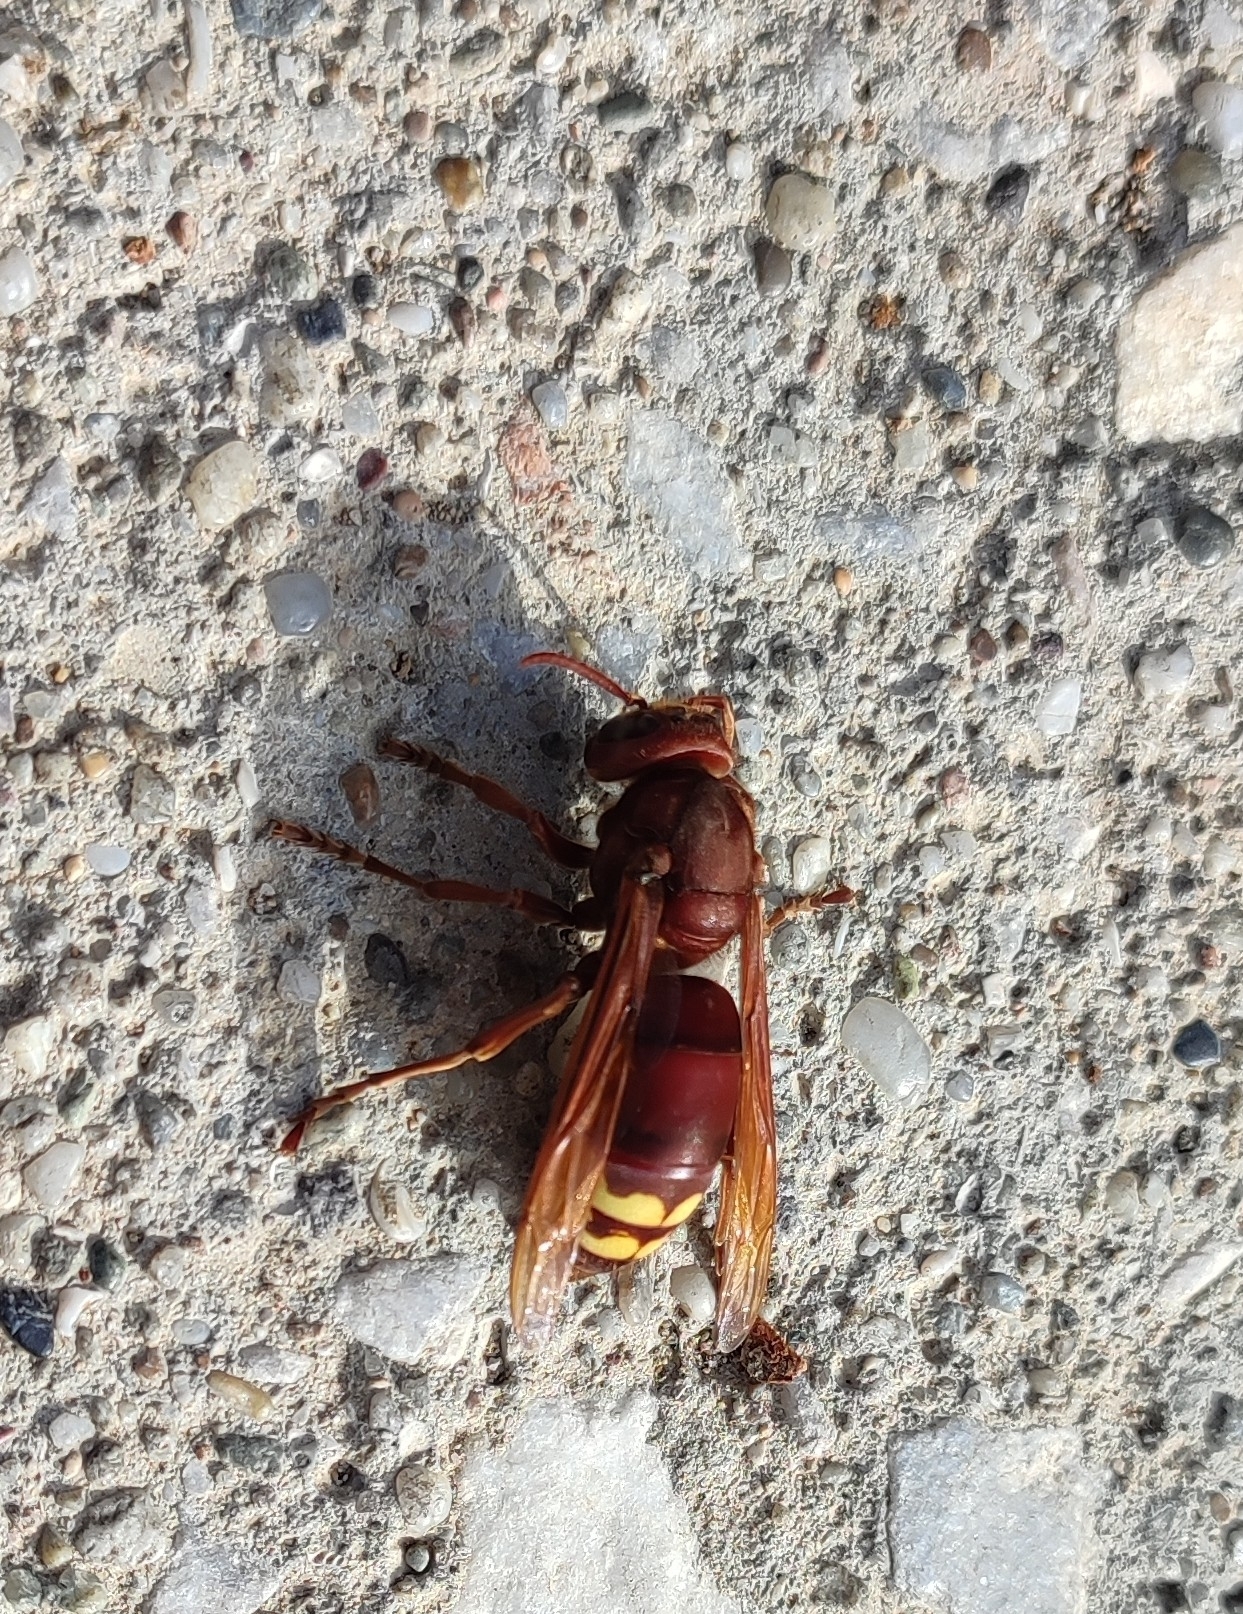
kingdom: Animalia
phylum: Arthropoda
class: Insecta
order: Hymenoptera
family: Vespidae
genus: Vespa
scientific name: Vespa orientalis
